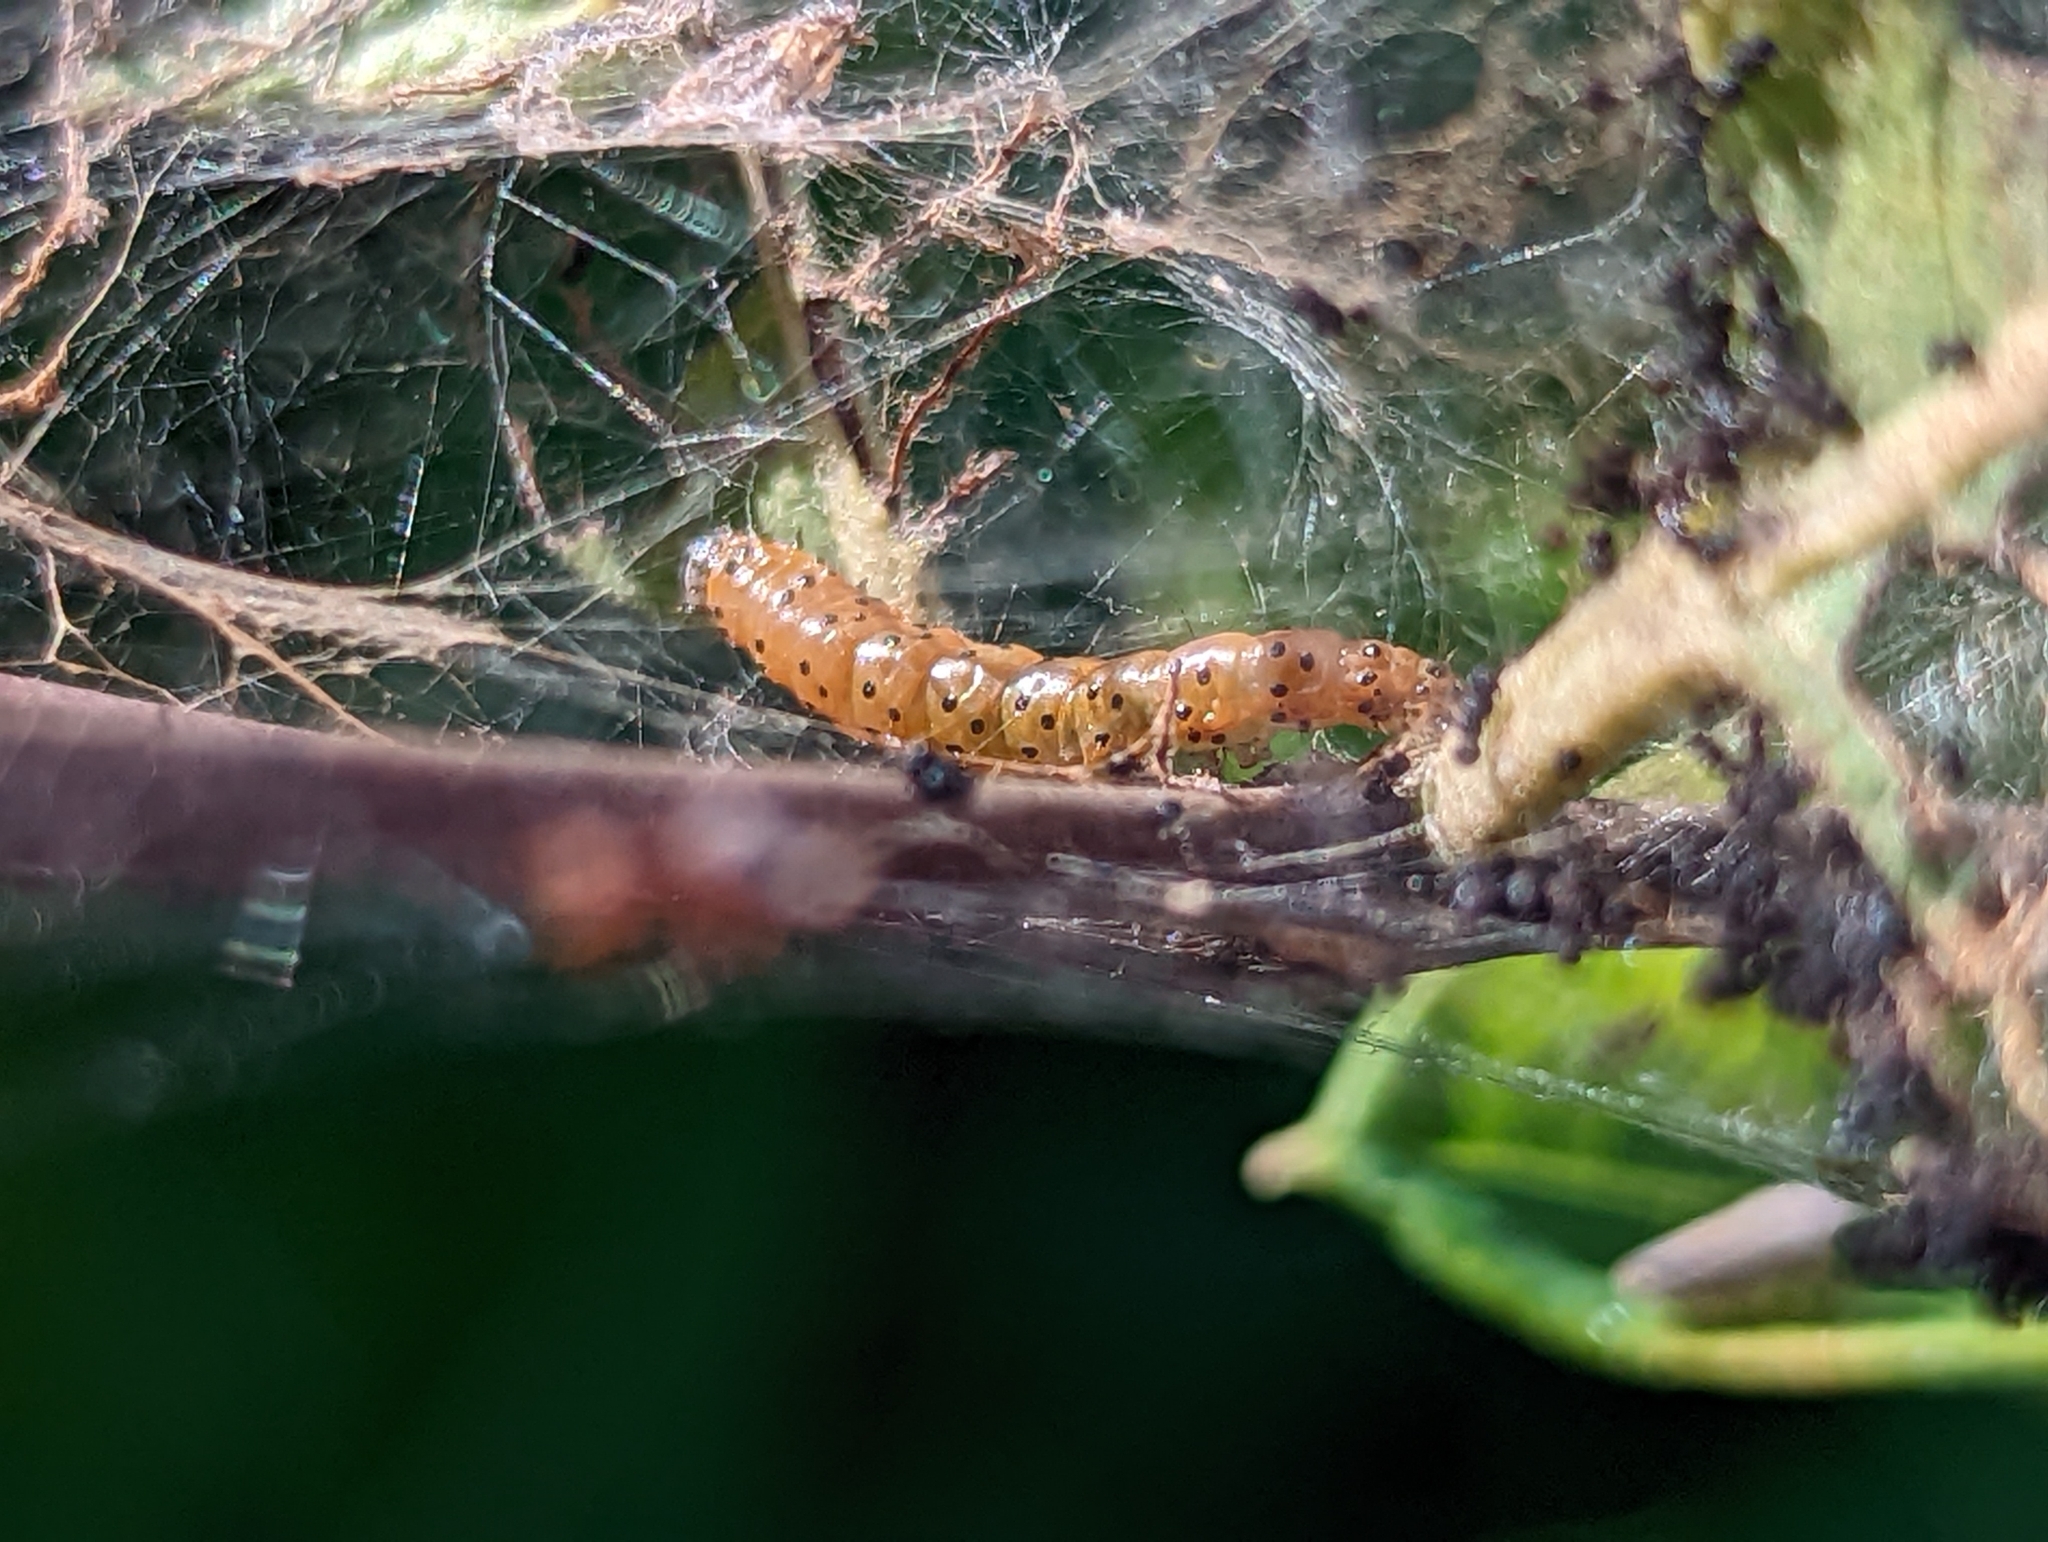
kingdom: Animalia
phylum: Arthropoda
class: Insecta
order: Lepidoptera
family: Crambidae
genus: Saucrobotys
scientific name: Saucrobotys futilalis
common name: Dogbane saucrobotys moth
